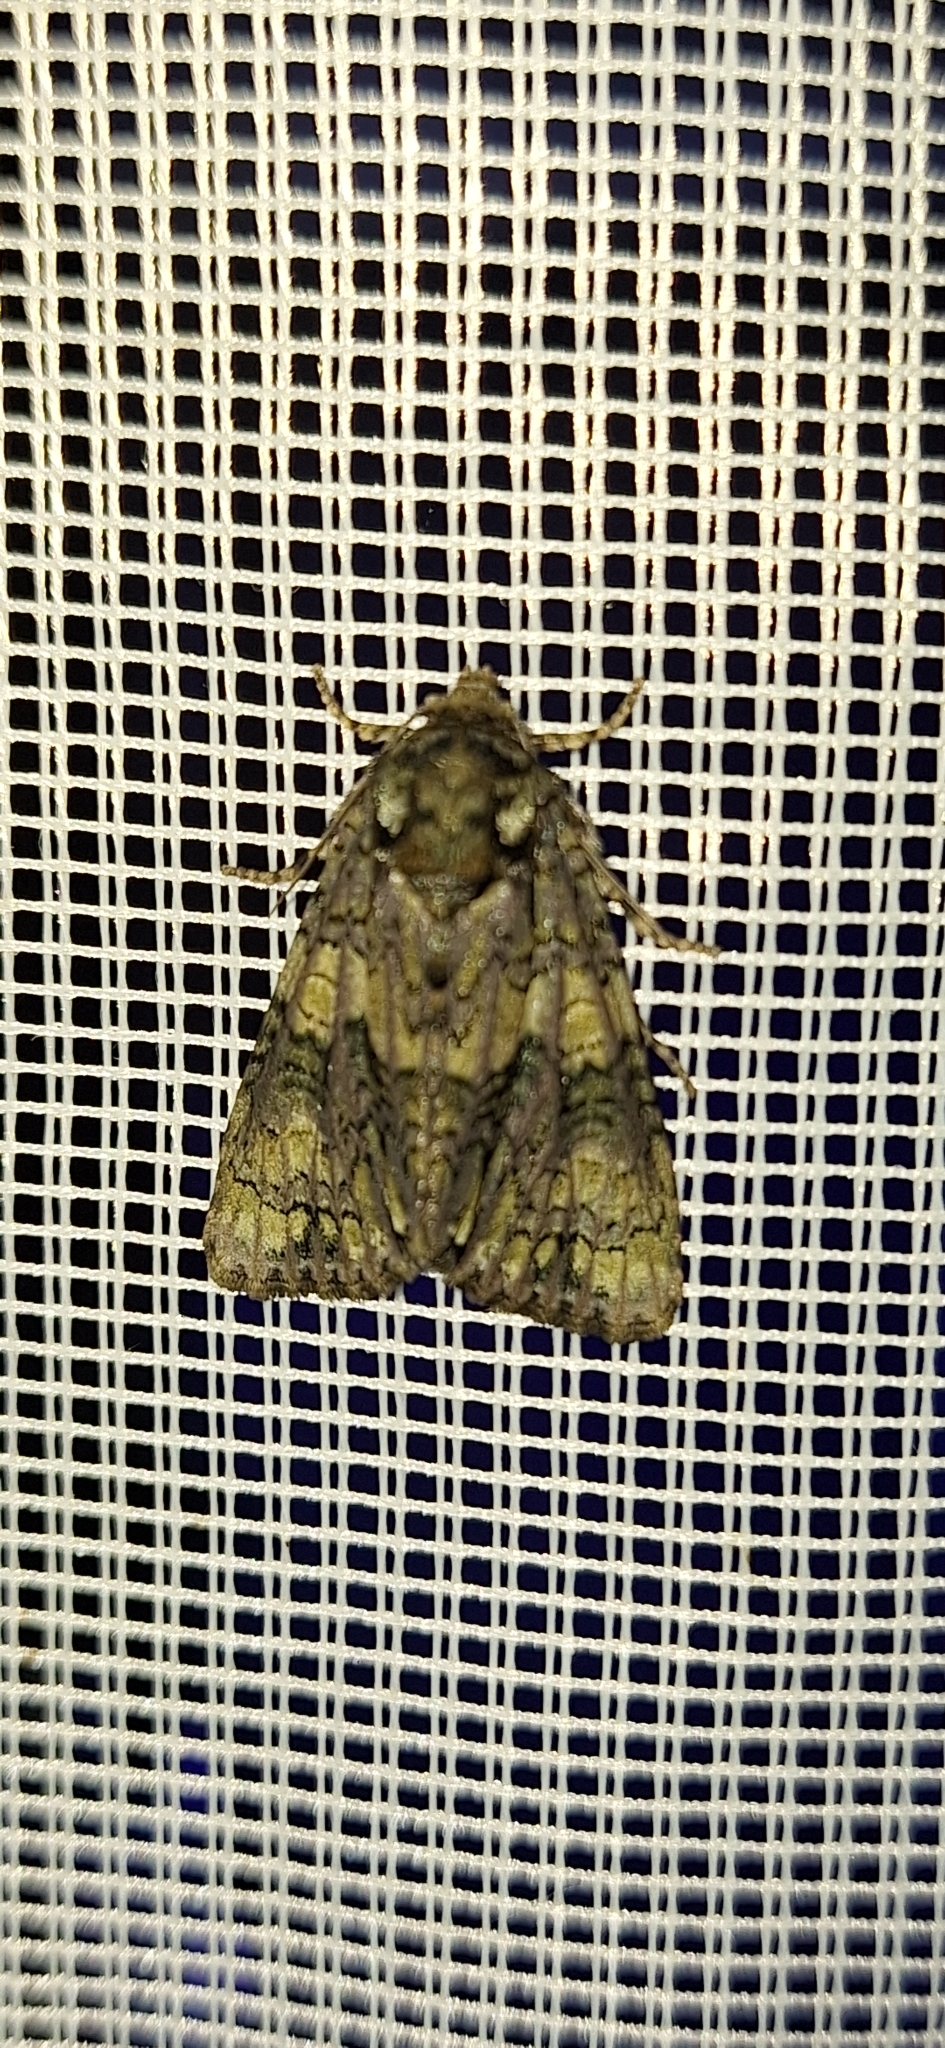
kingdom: Animalia
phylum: Arthropoda
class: Insecta
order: Lepidoptera
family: Noctuidae
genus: Craniophora
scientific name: Craniophora ligustri
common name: Coronet
